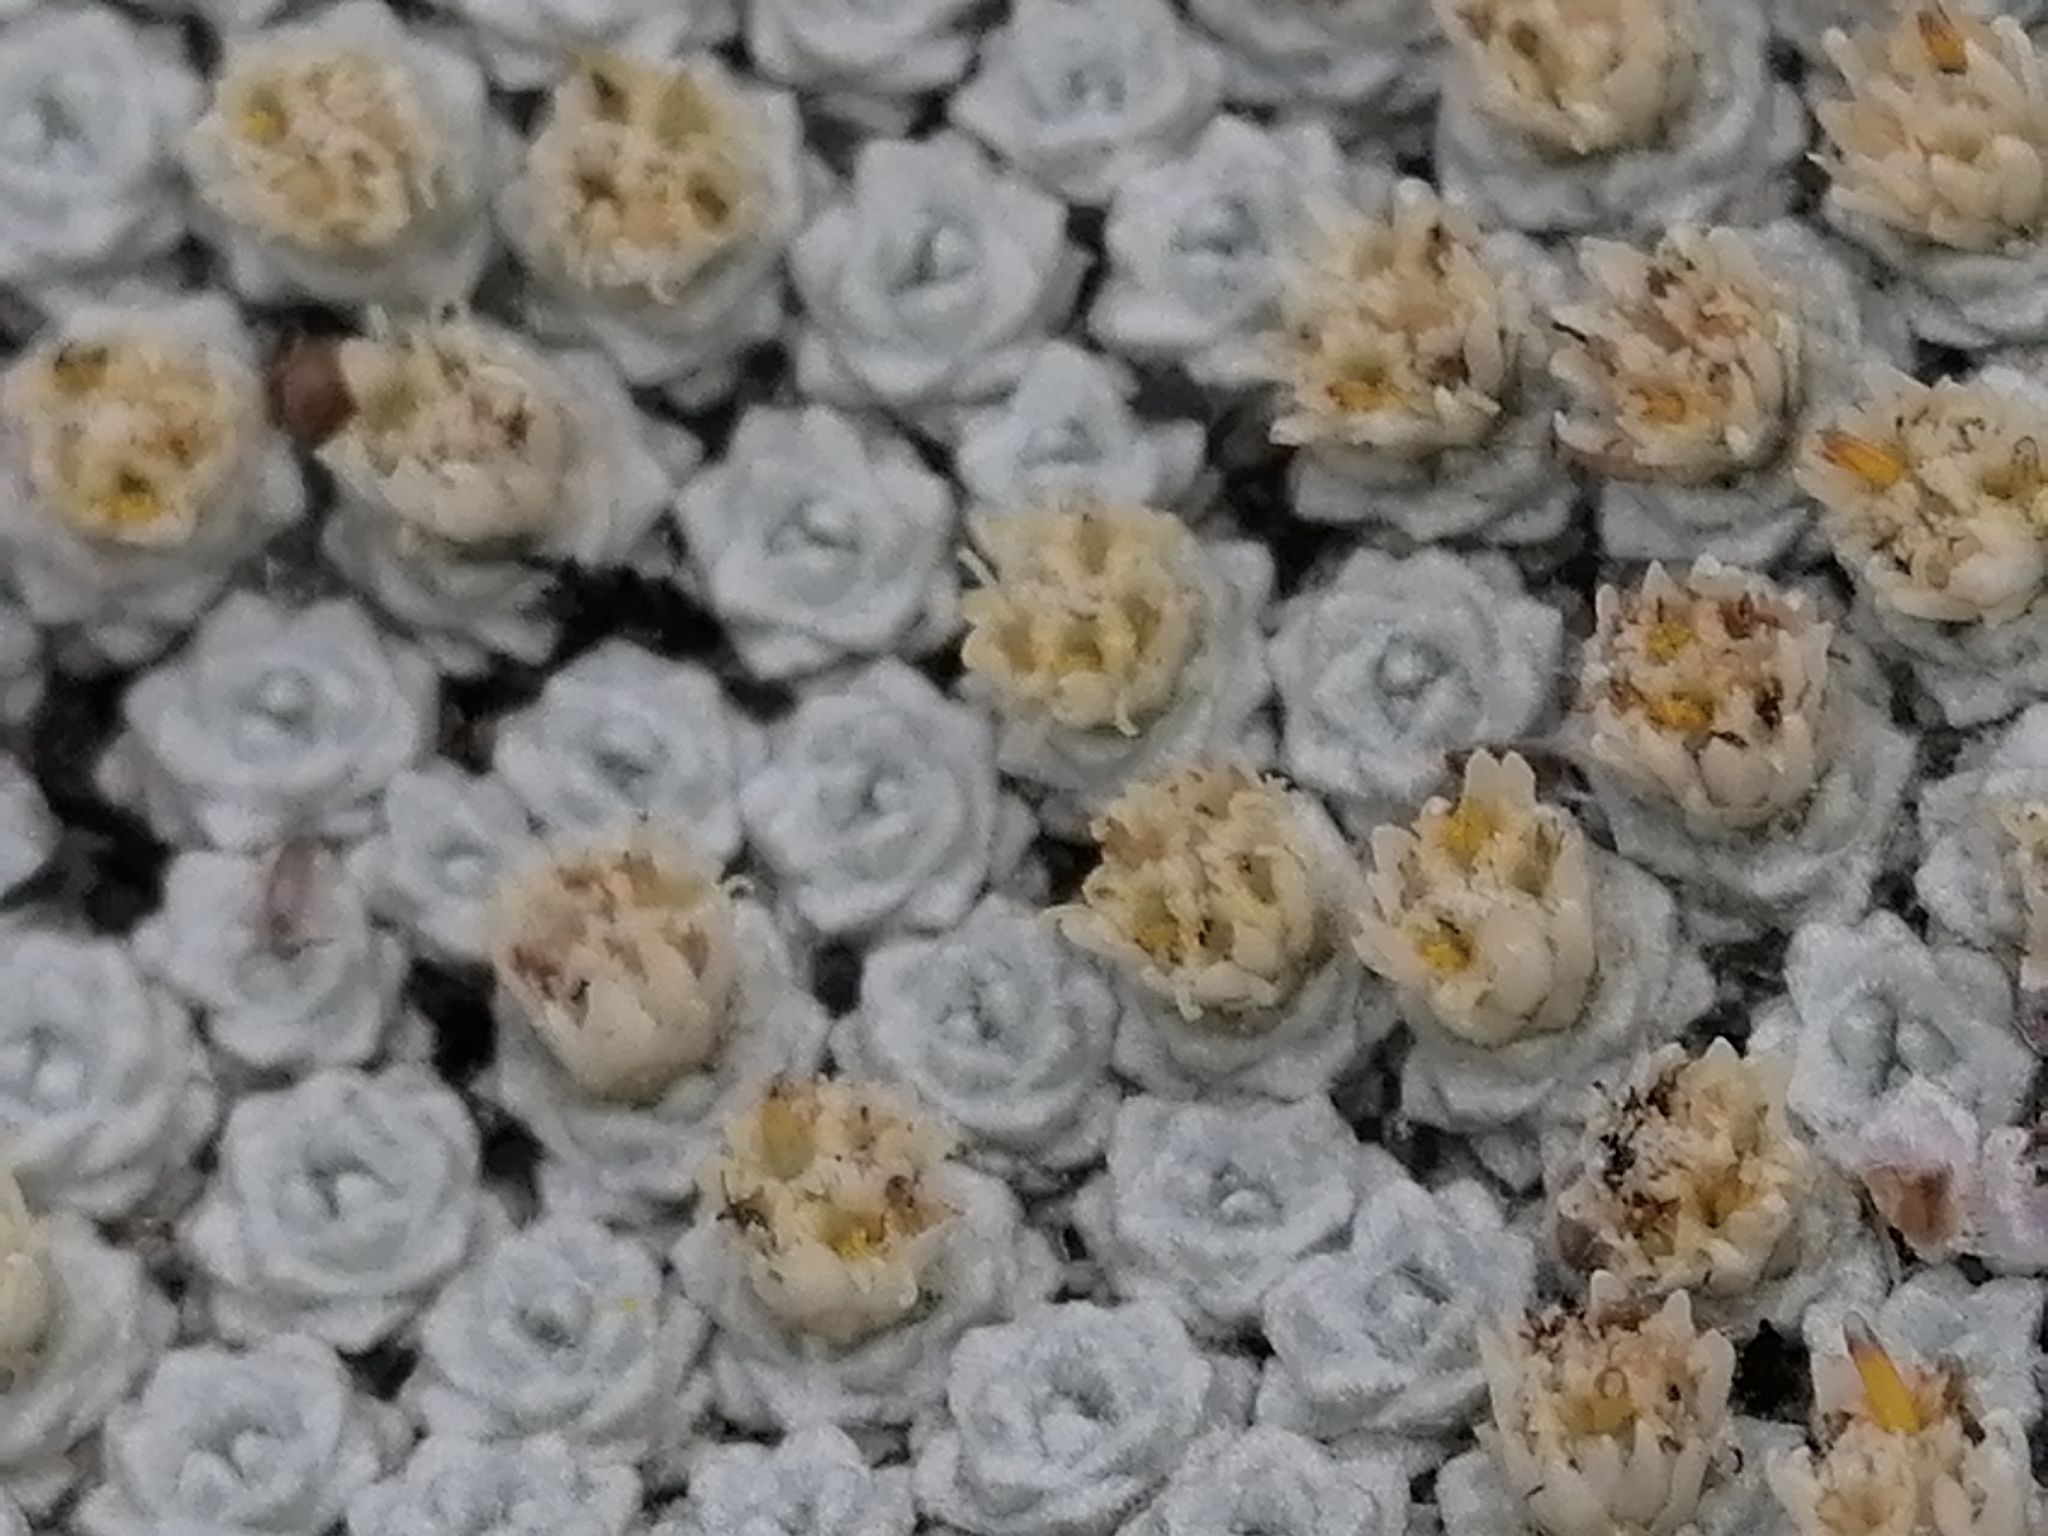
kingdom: Plantae
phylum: Tracheophyta
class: Magnoliopsida
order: Asterales
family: Asteraceae
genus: Raoulia
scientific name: Raoulia bryoides
